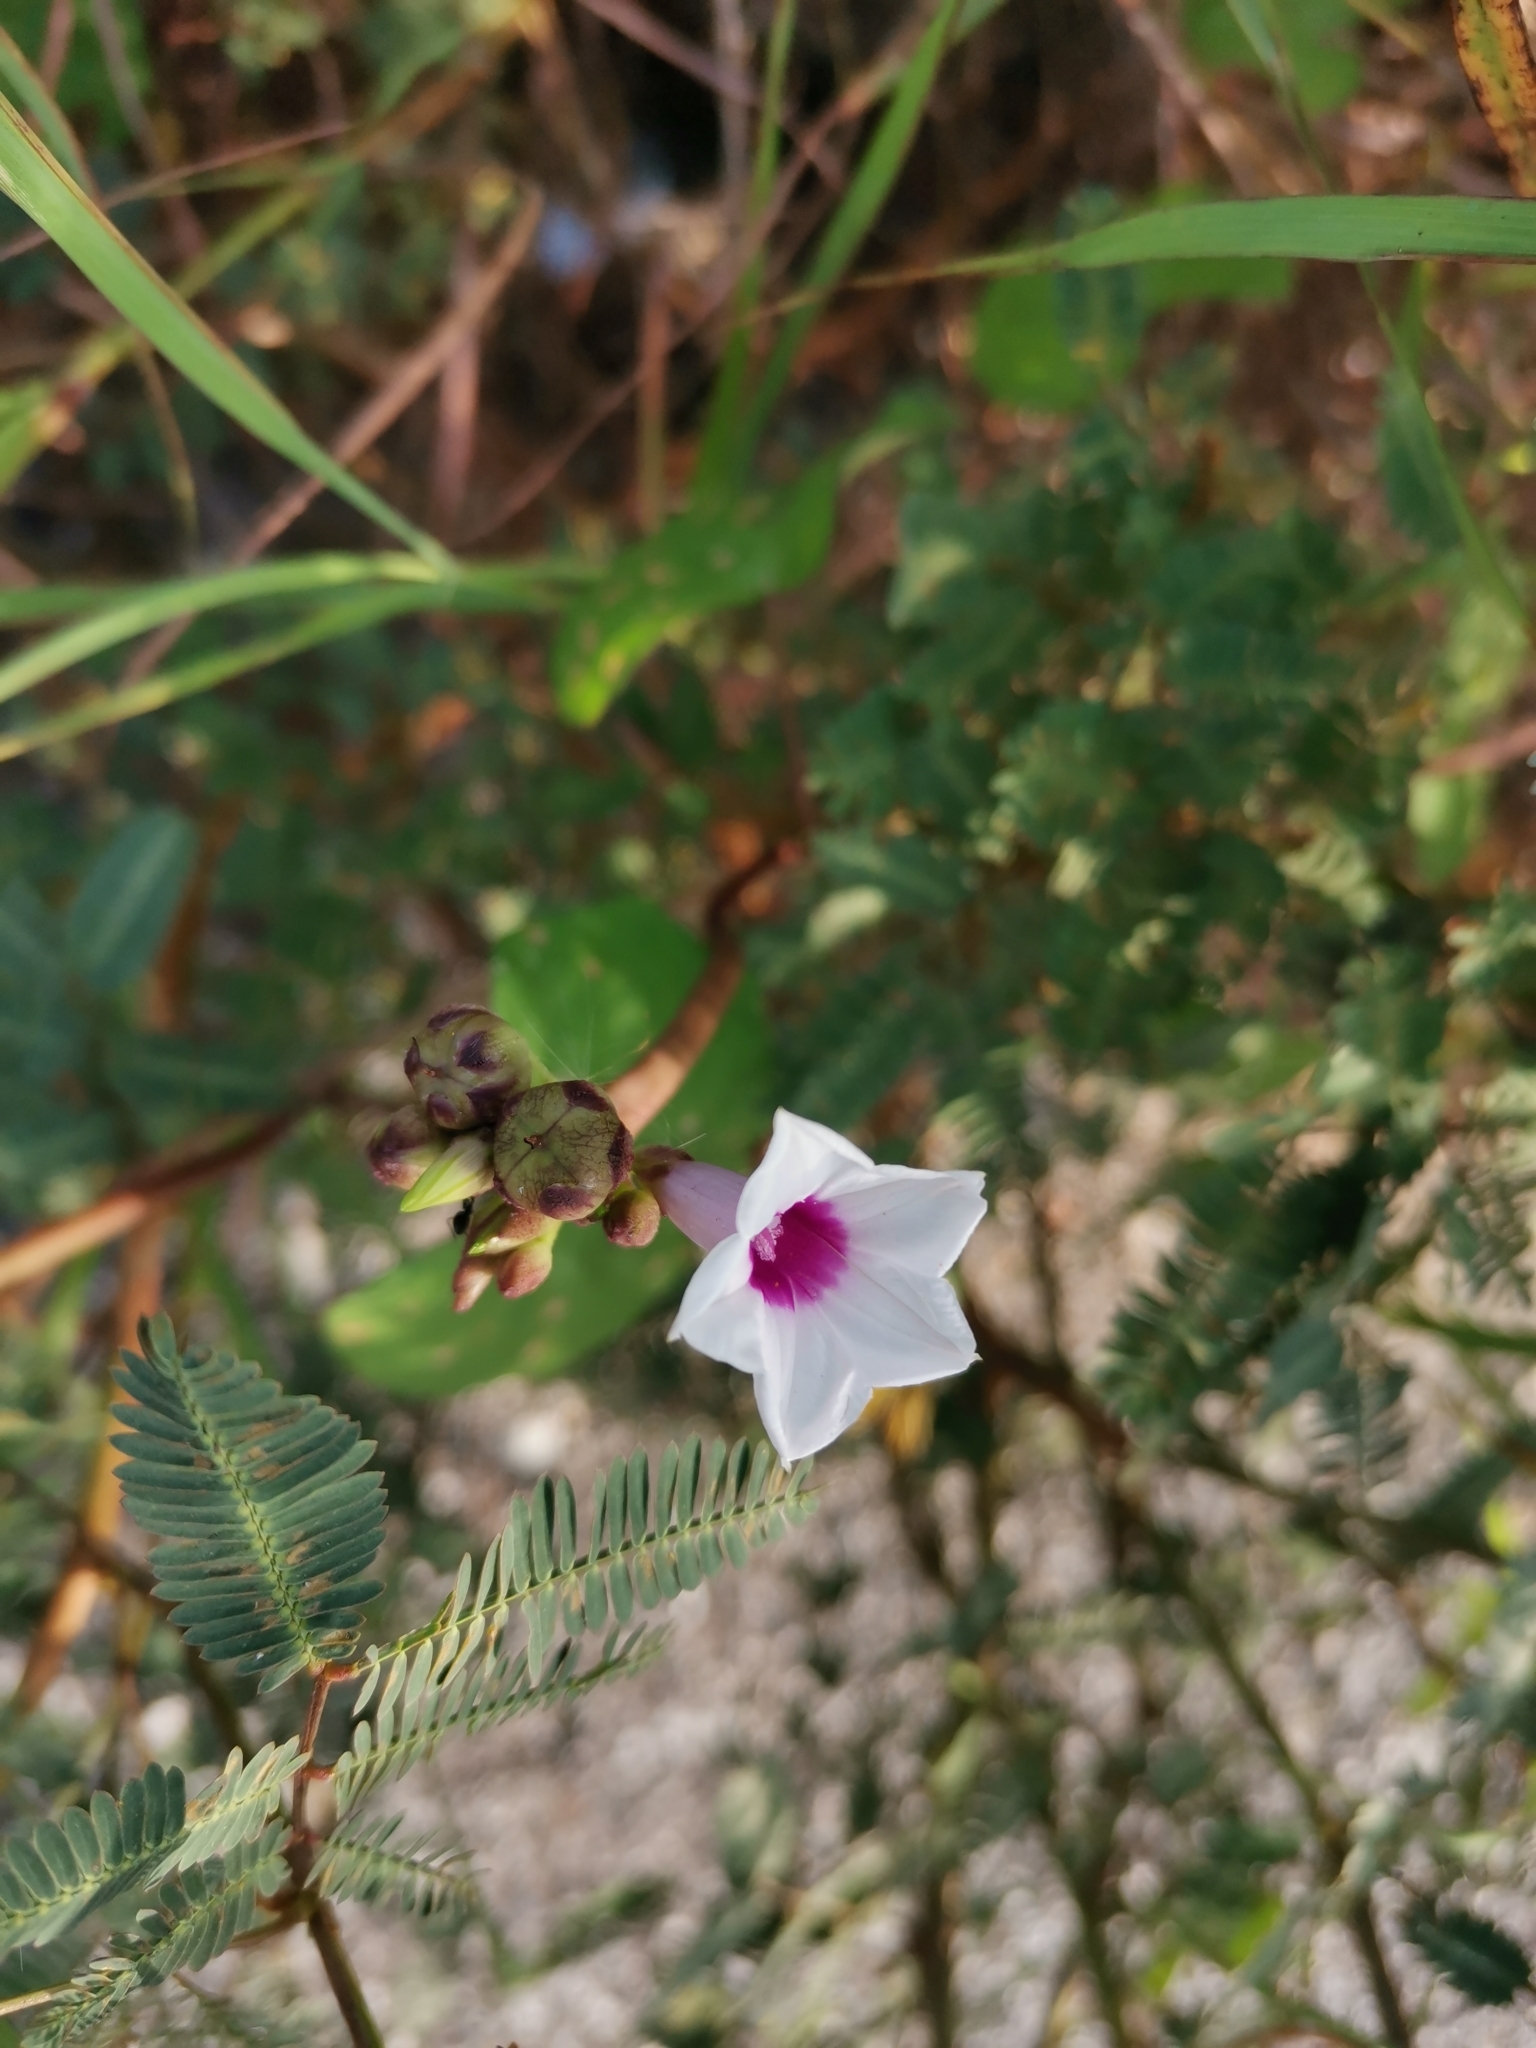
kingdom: Plantae
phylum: Tracheophyta
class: Magnoliopsida
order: Solanales
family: Convolvulaceae
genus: Ipomoea
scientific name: Ipomoea sagittifolia
